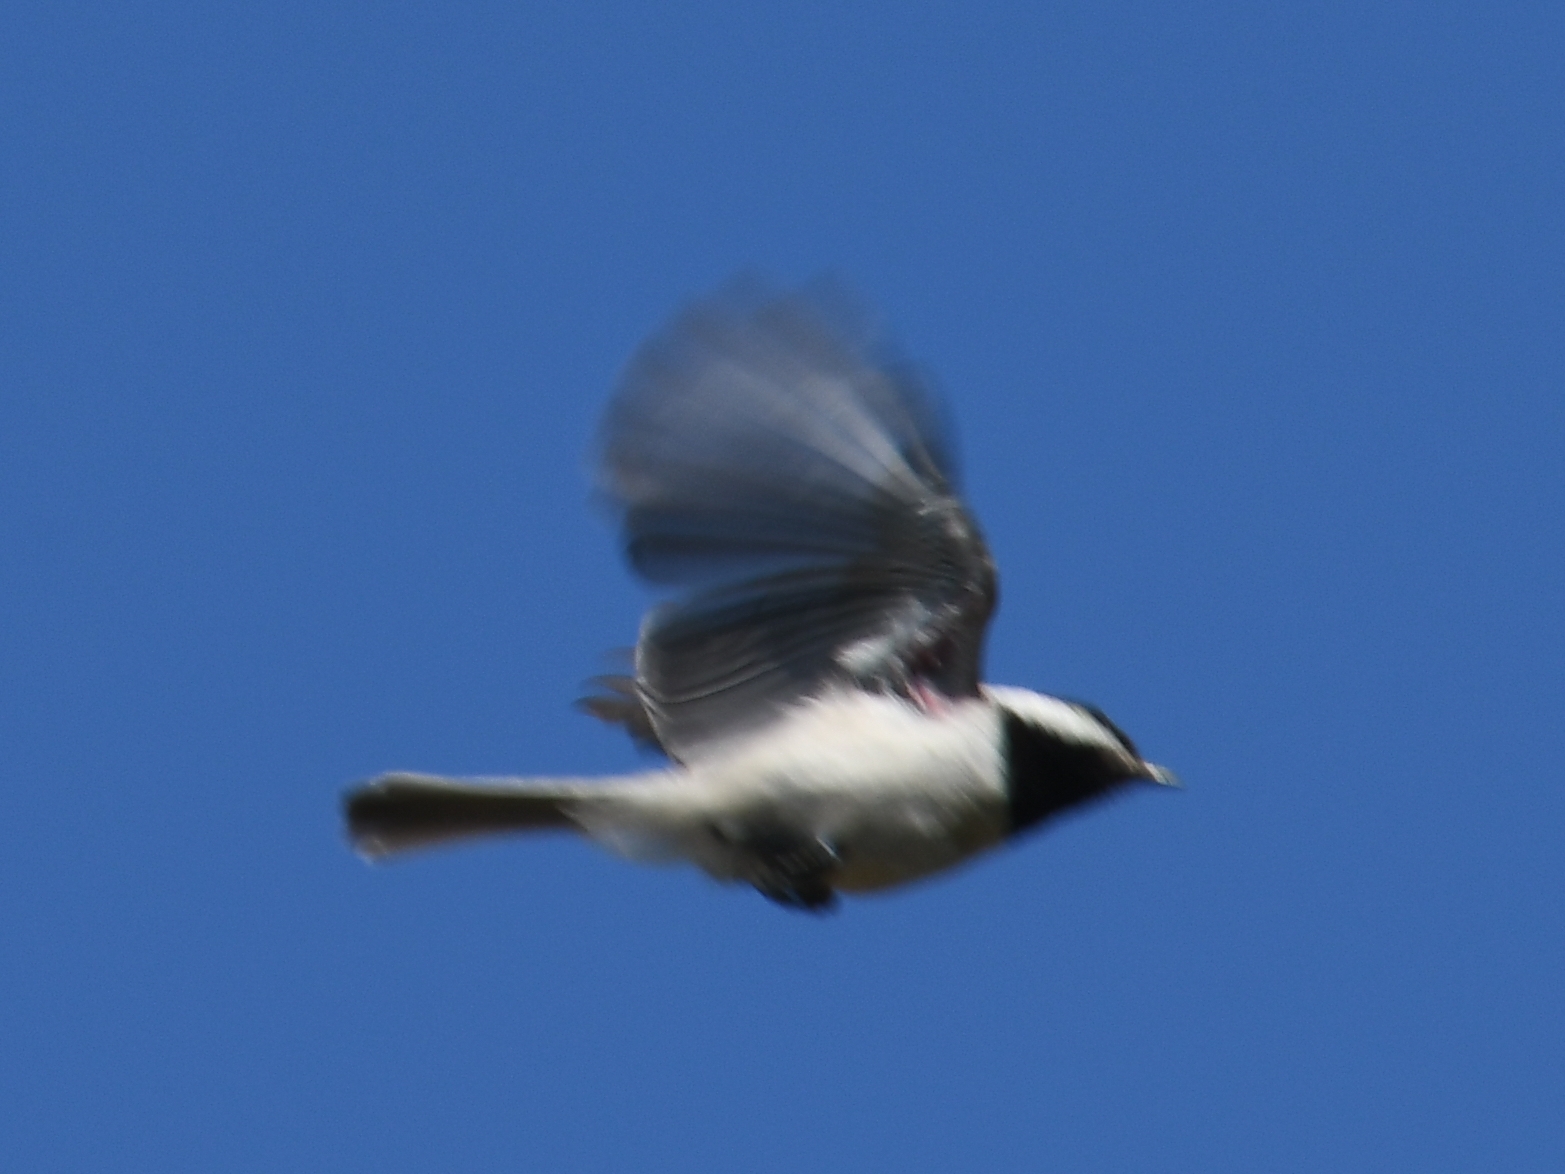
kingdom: Animalia
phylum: Chordata
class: Aves
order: Passeriformes
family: Paridae
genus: Poecile
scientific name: Poecile carolinensis
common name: Carolina chickadee
